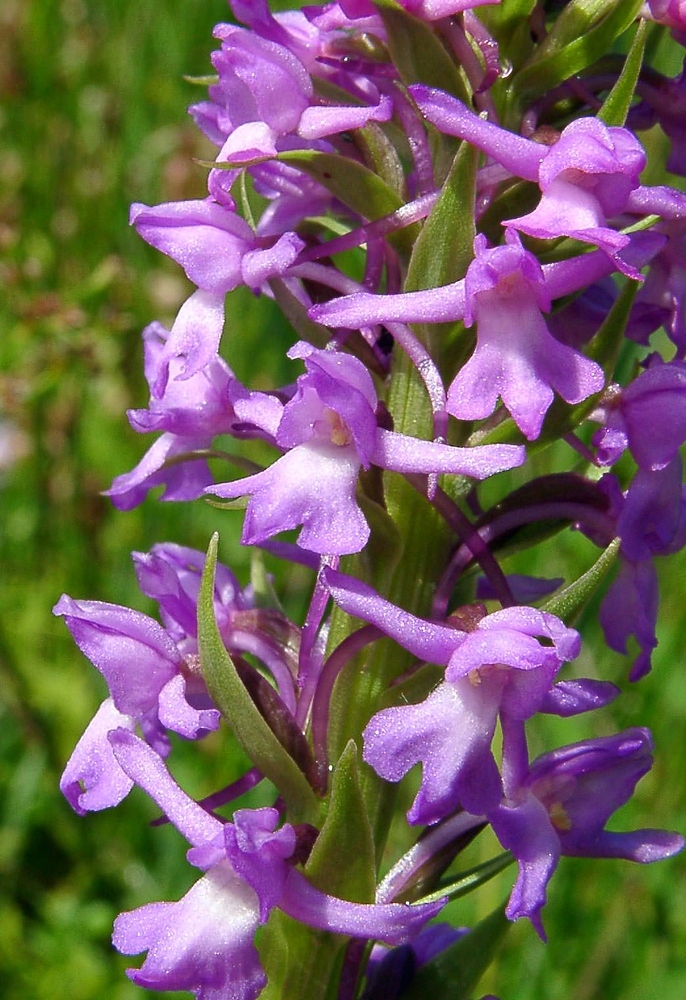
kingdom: Plantae
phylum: Tracheophyta
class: Liliopsida
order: Asparagales
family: Orchidaceae
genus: Gymnadenia
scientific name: Gymnadenia densiflora
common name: Marsh fragrant-orchid
